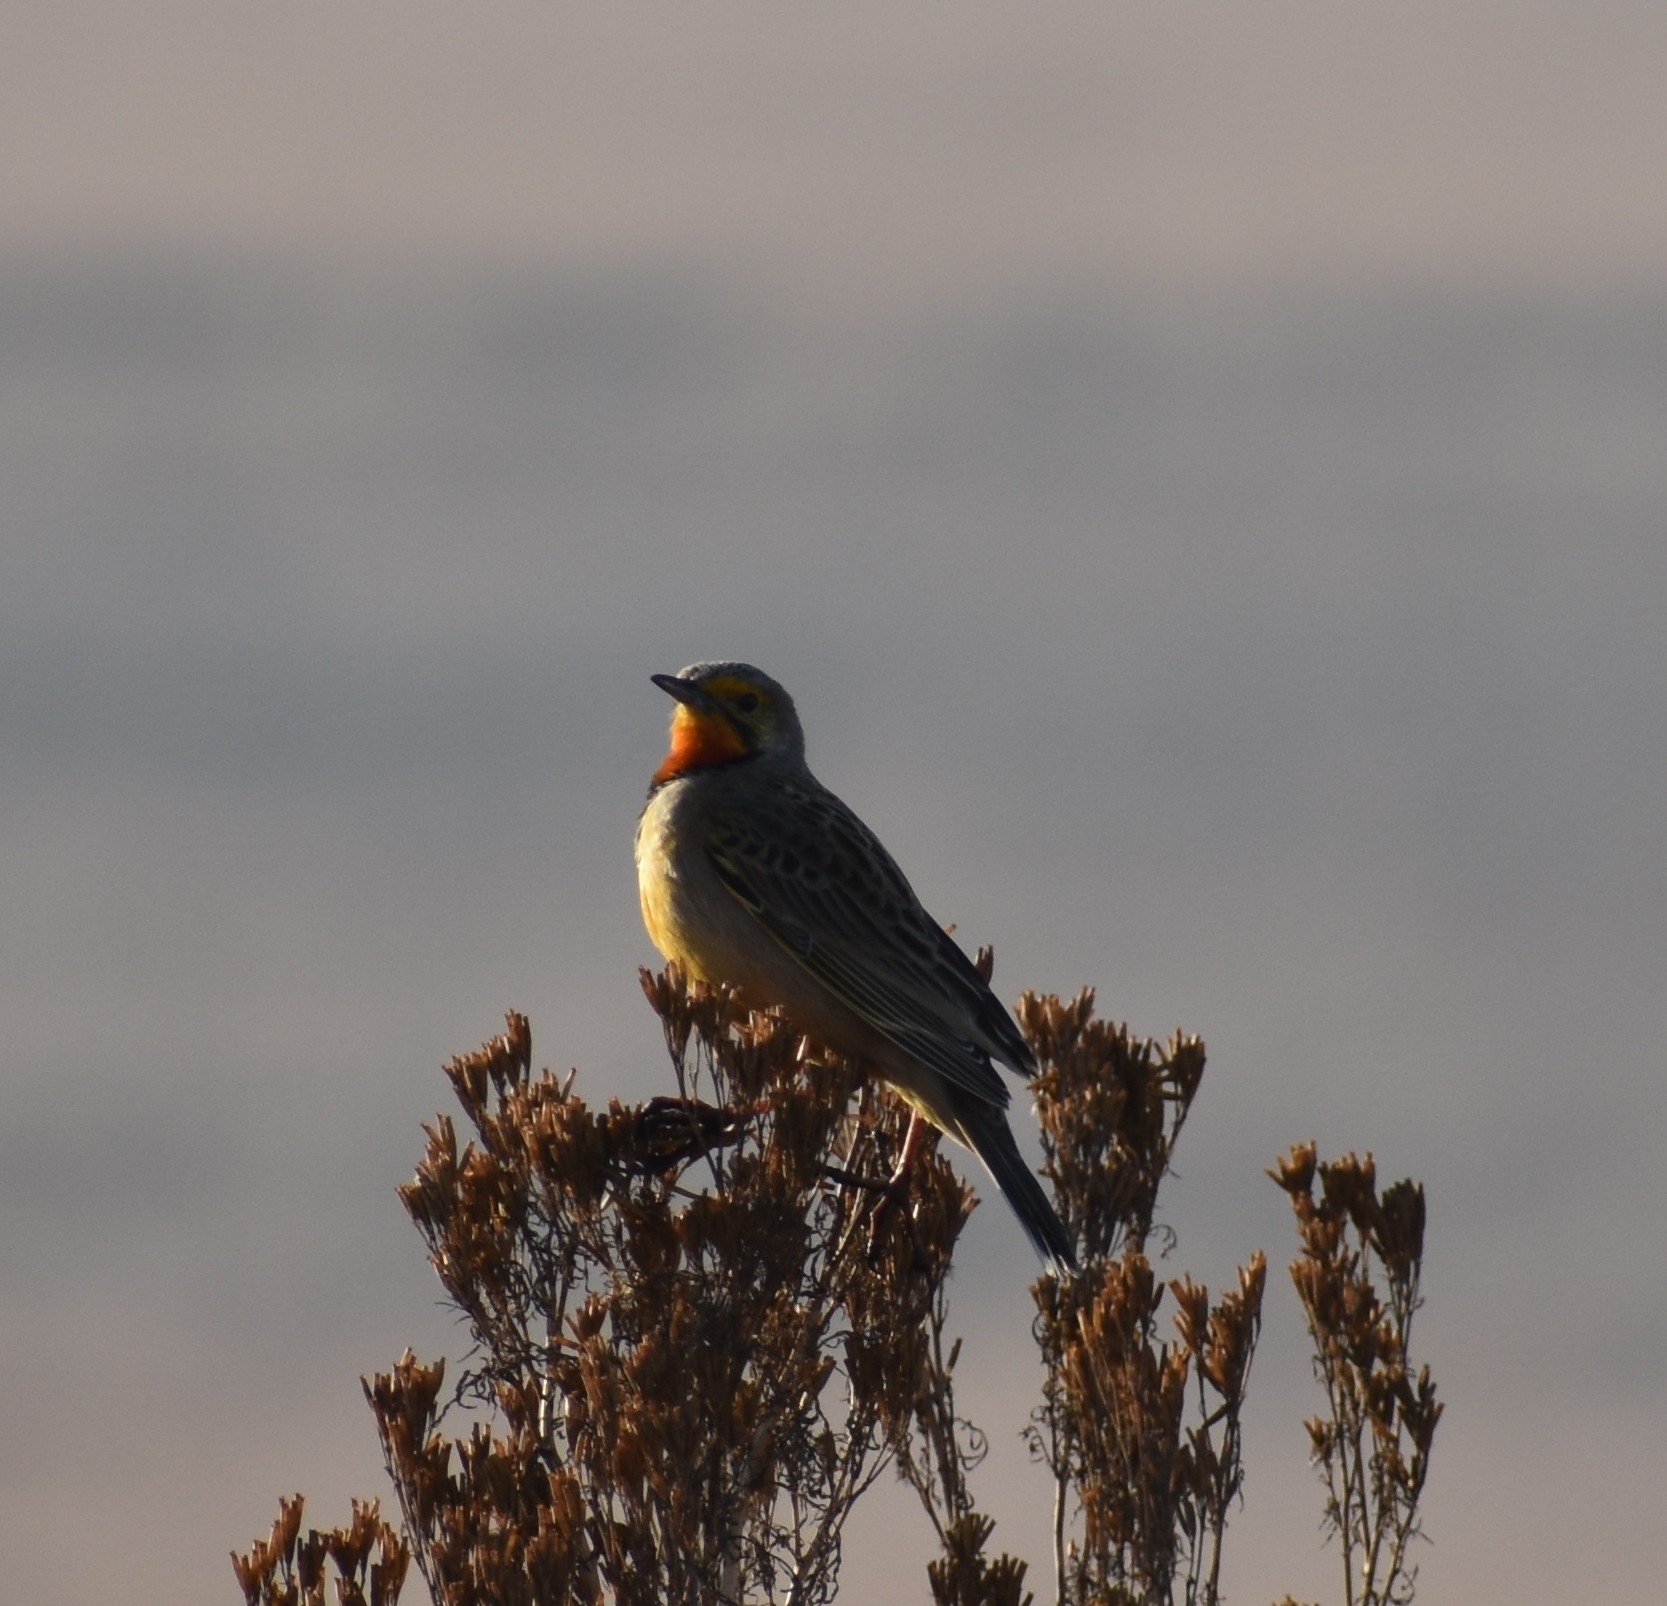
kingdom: Animalia
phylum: Chordata
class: Aves
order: Passeriformes
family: Motacillidae
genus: Macronyx
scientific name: Macronyx capensis
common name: Cape longclaw
